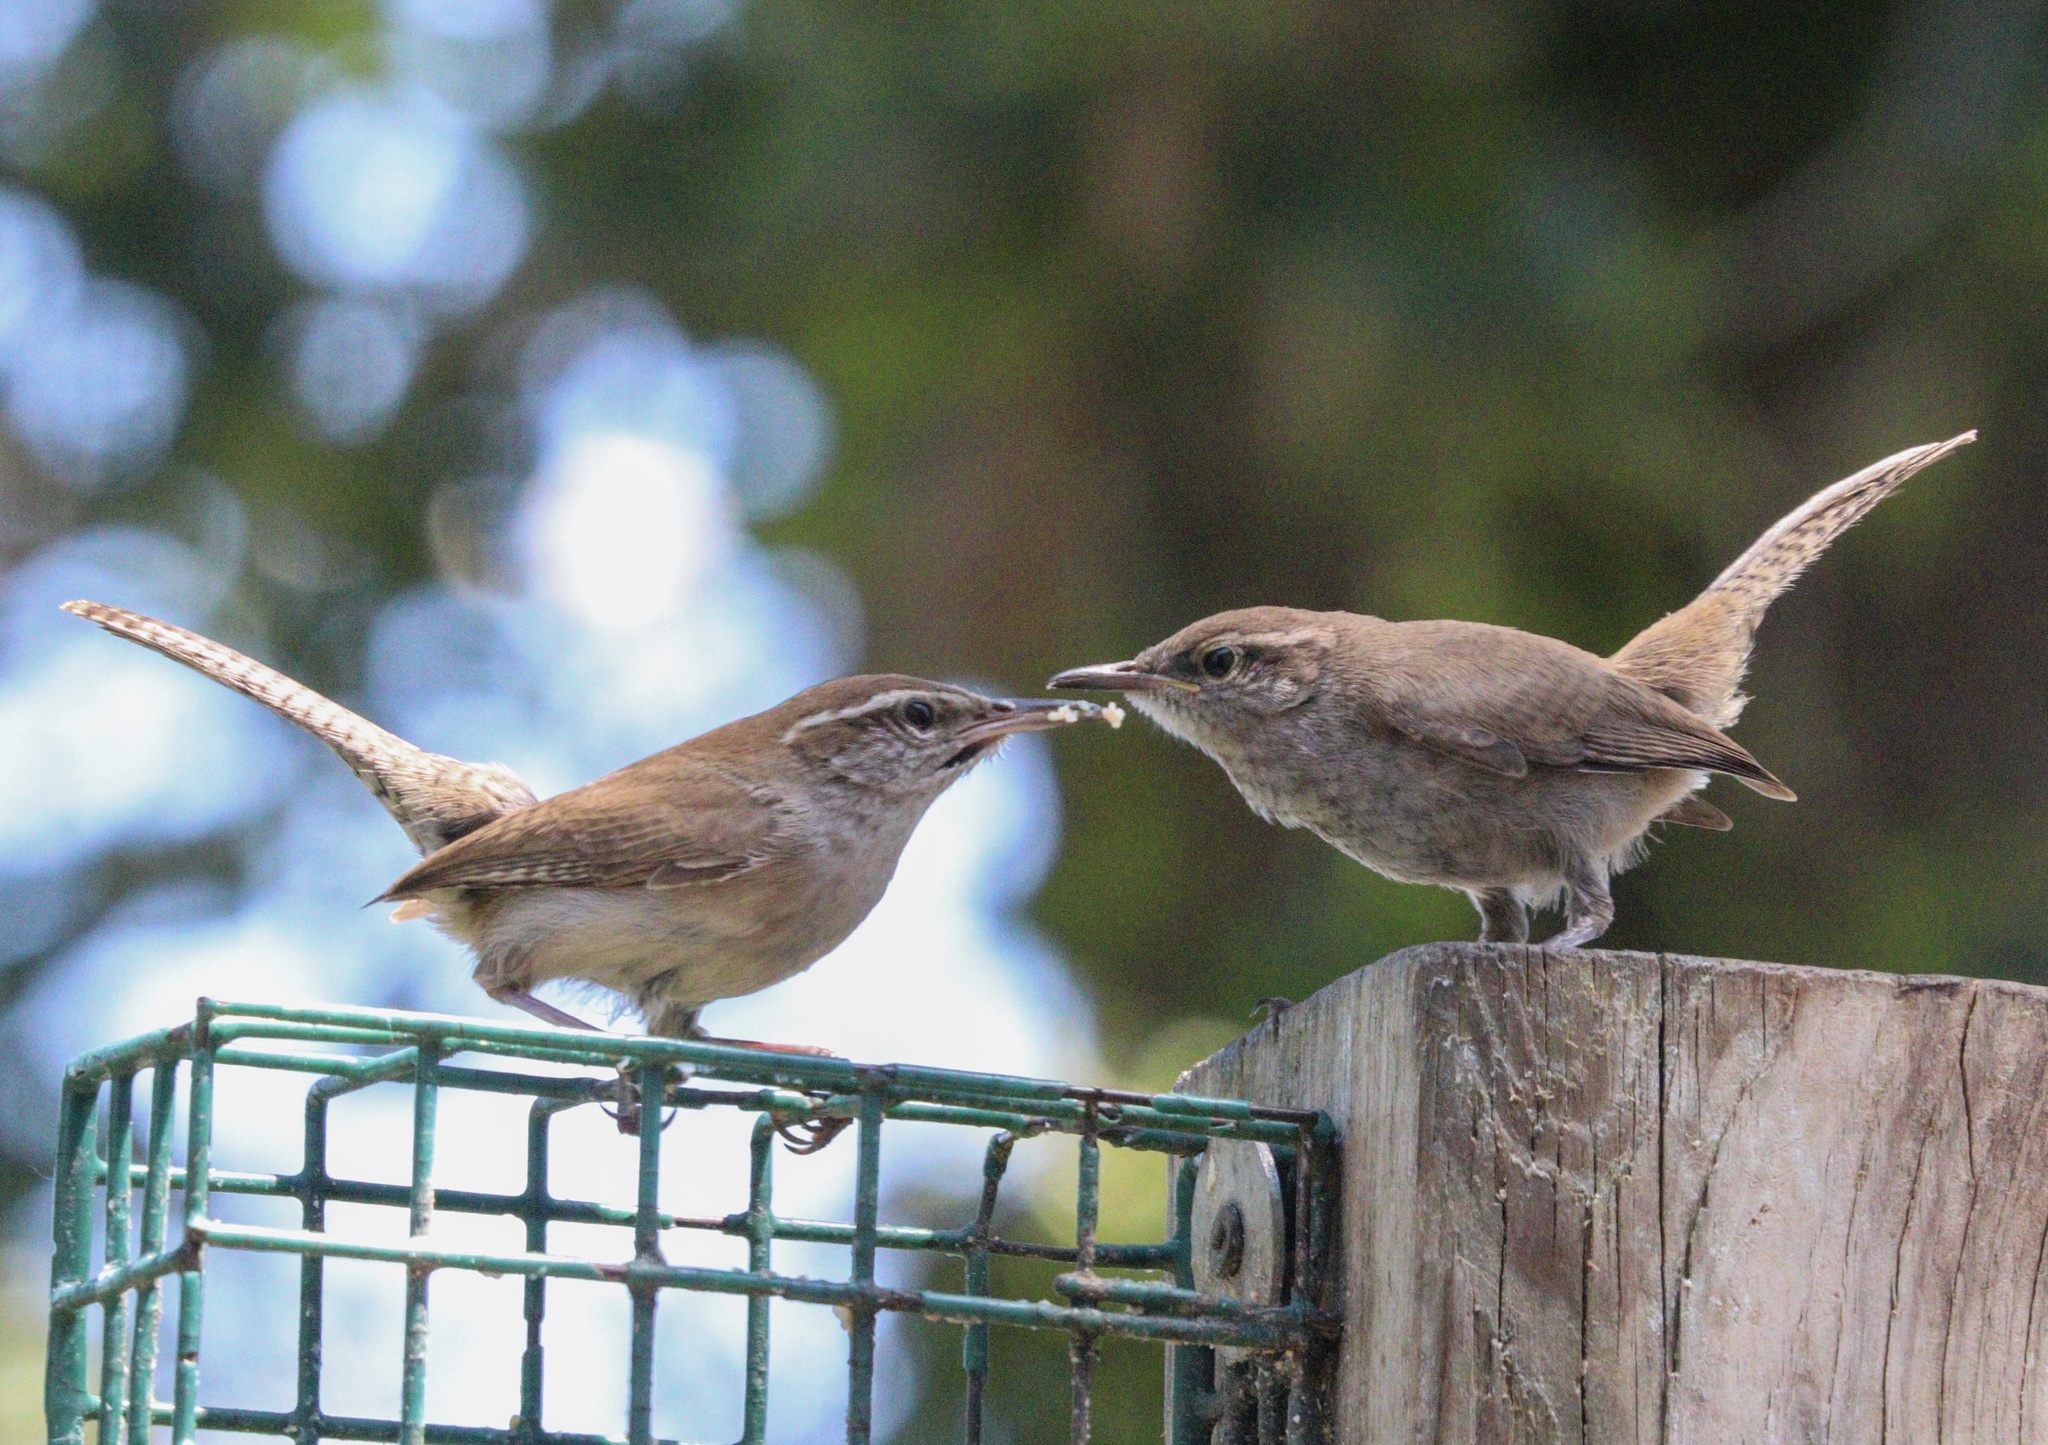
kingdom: Animalia
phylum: Chordata
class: Aves
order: Passeriformes
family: Troglodytidae
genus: Thryomanes
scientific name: Thryomanes bewickii
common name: Bewick's wren
